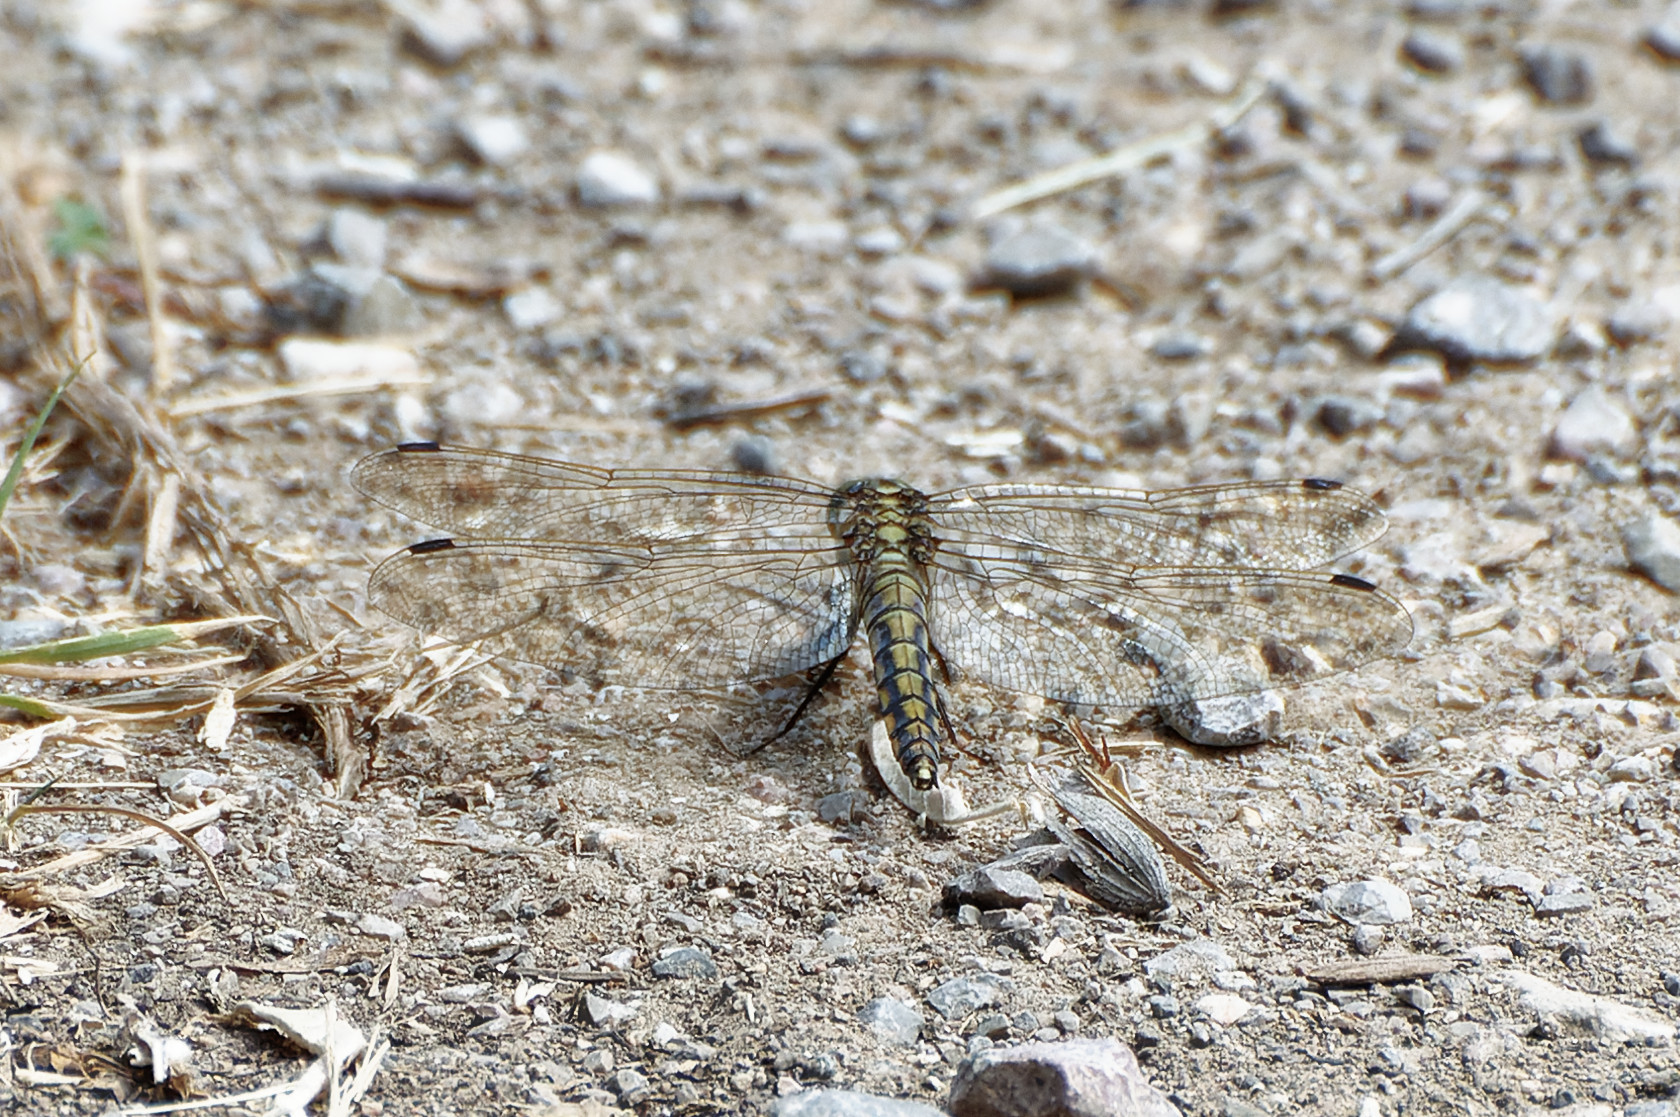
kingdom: Animalia
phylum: Arthropoda
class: Insecta
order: Odonata
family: Libellulidae
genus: Orthetrum
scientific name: Orthetrum cancellatum
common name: Black-tailed skimmer
